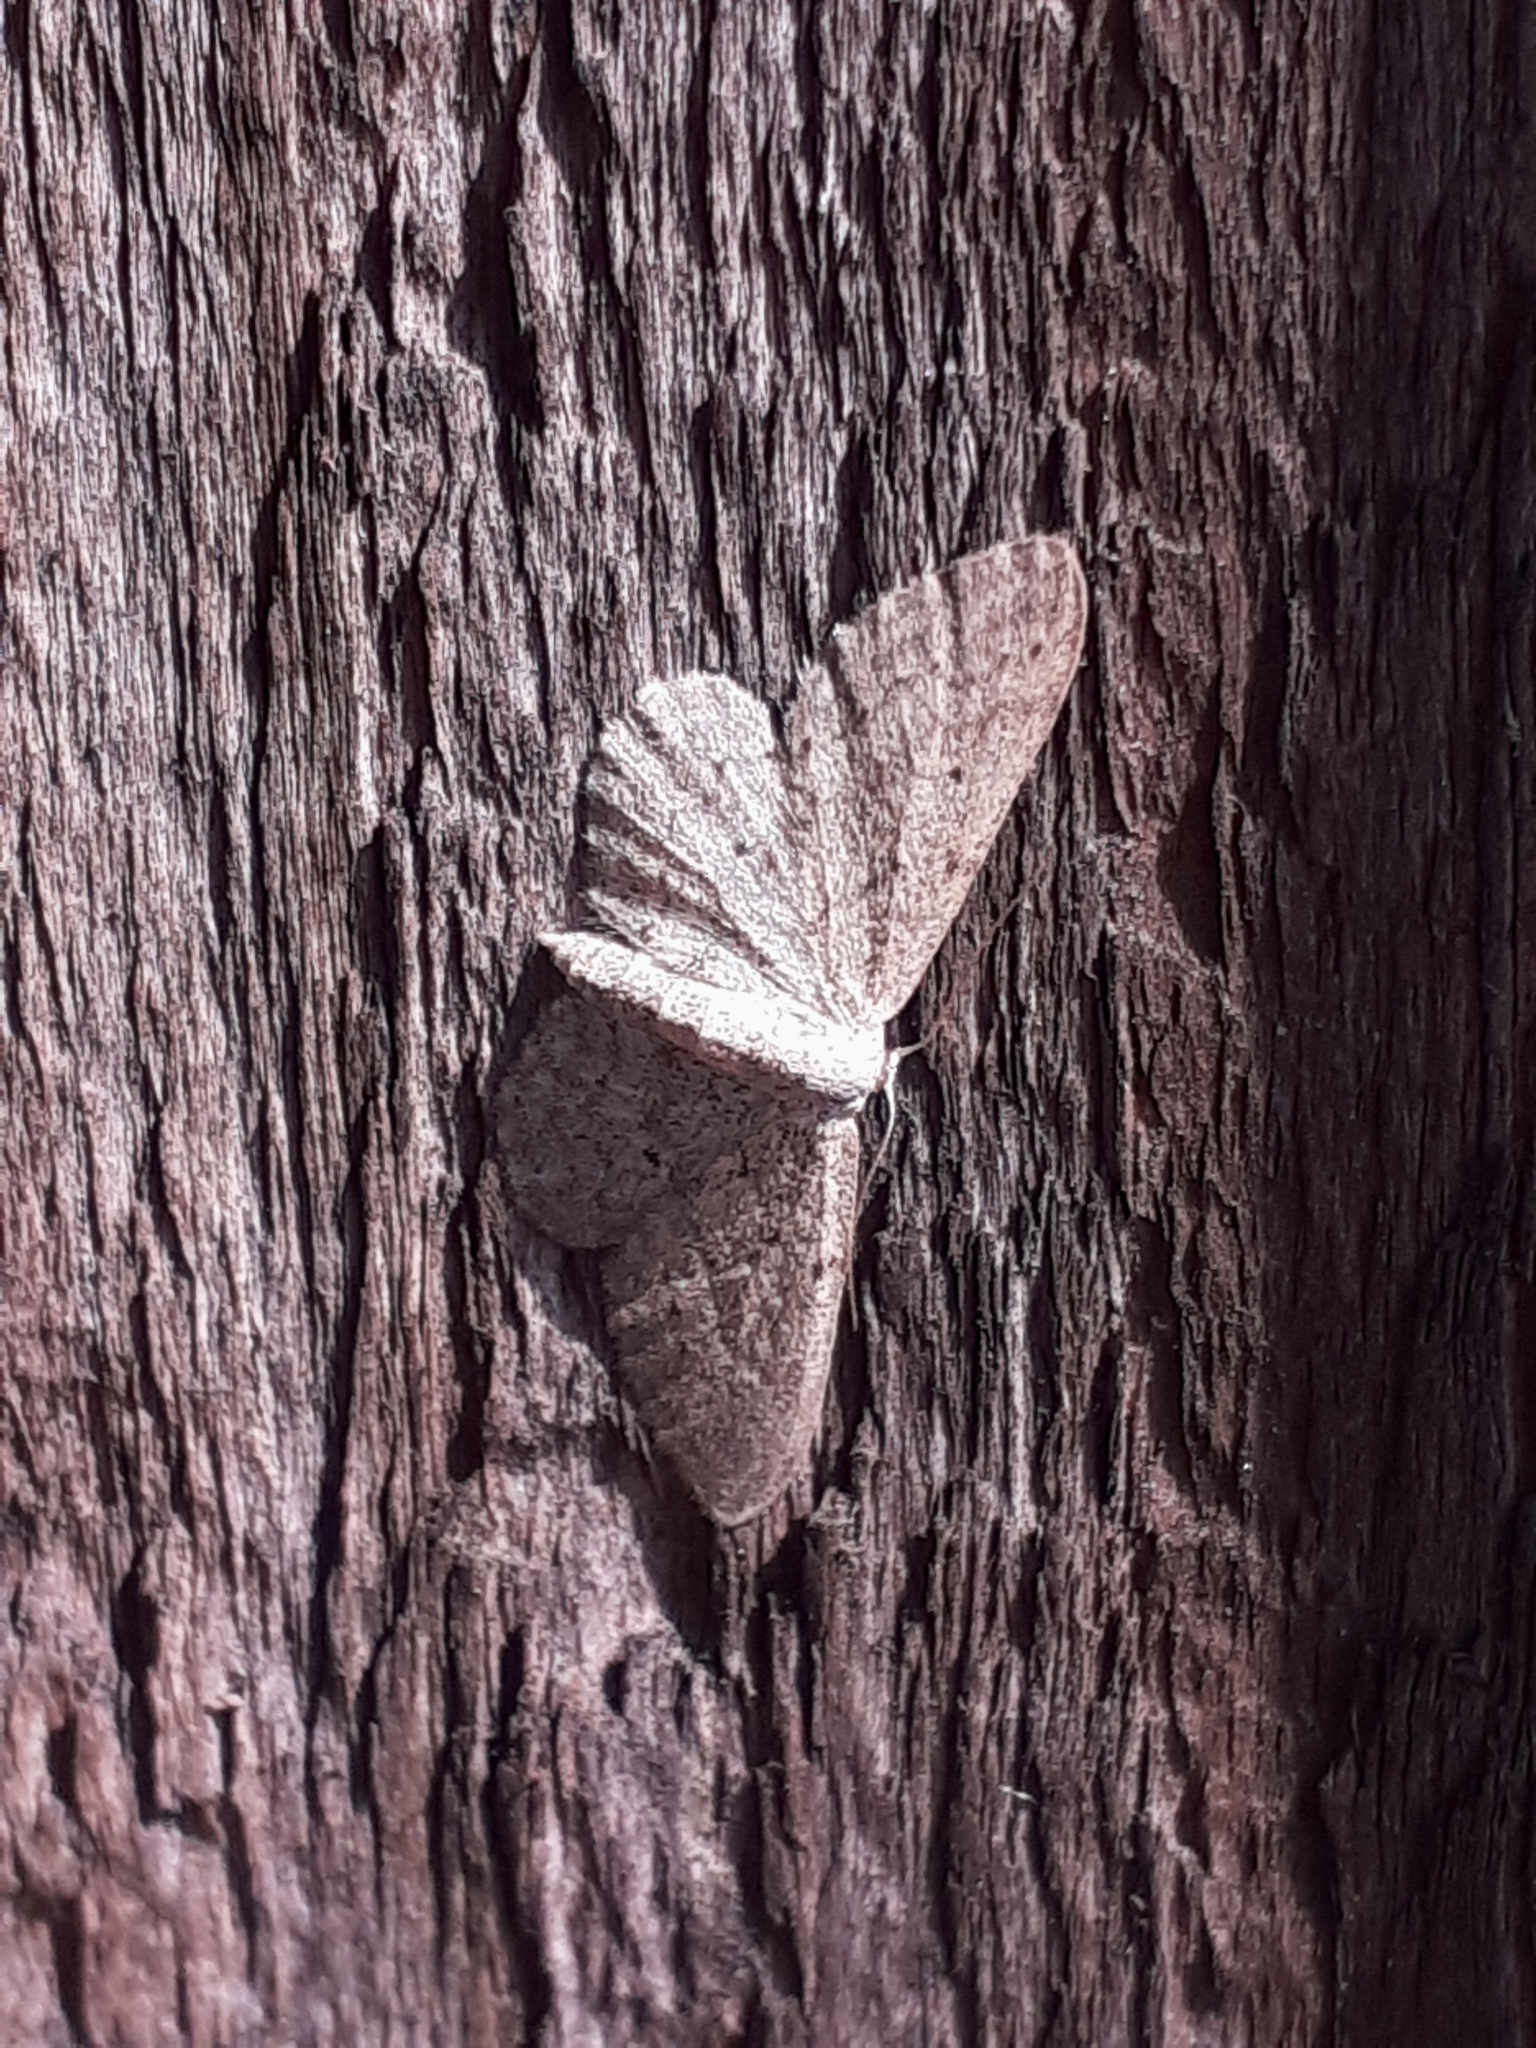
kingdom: Animalia
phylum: Arthropoda
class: Insecta
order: Lepidoptera
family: Geometridae
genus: Idaea
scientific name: Idaea seriata
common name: Small dusty wave
